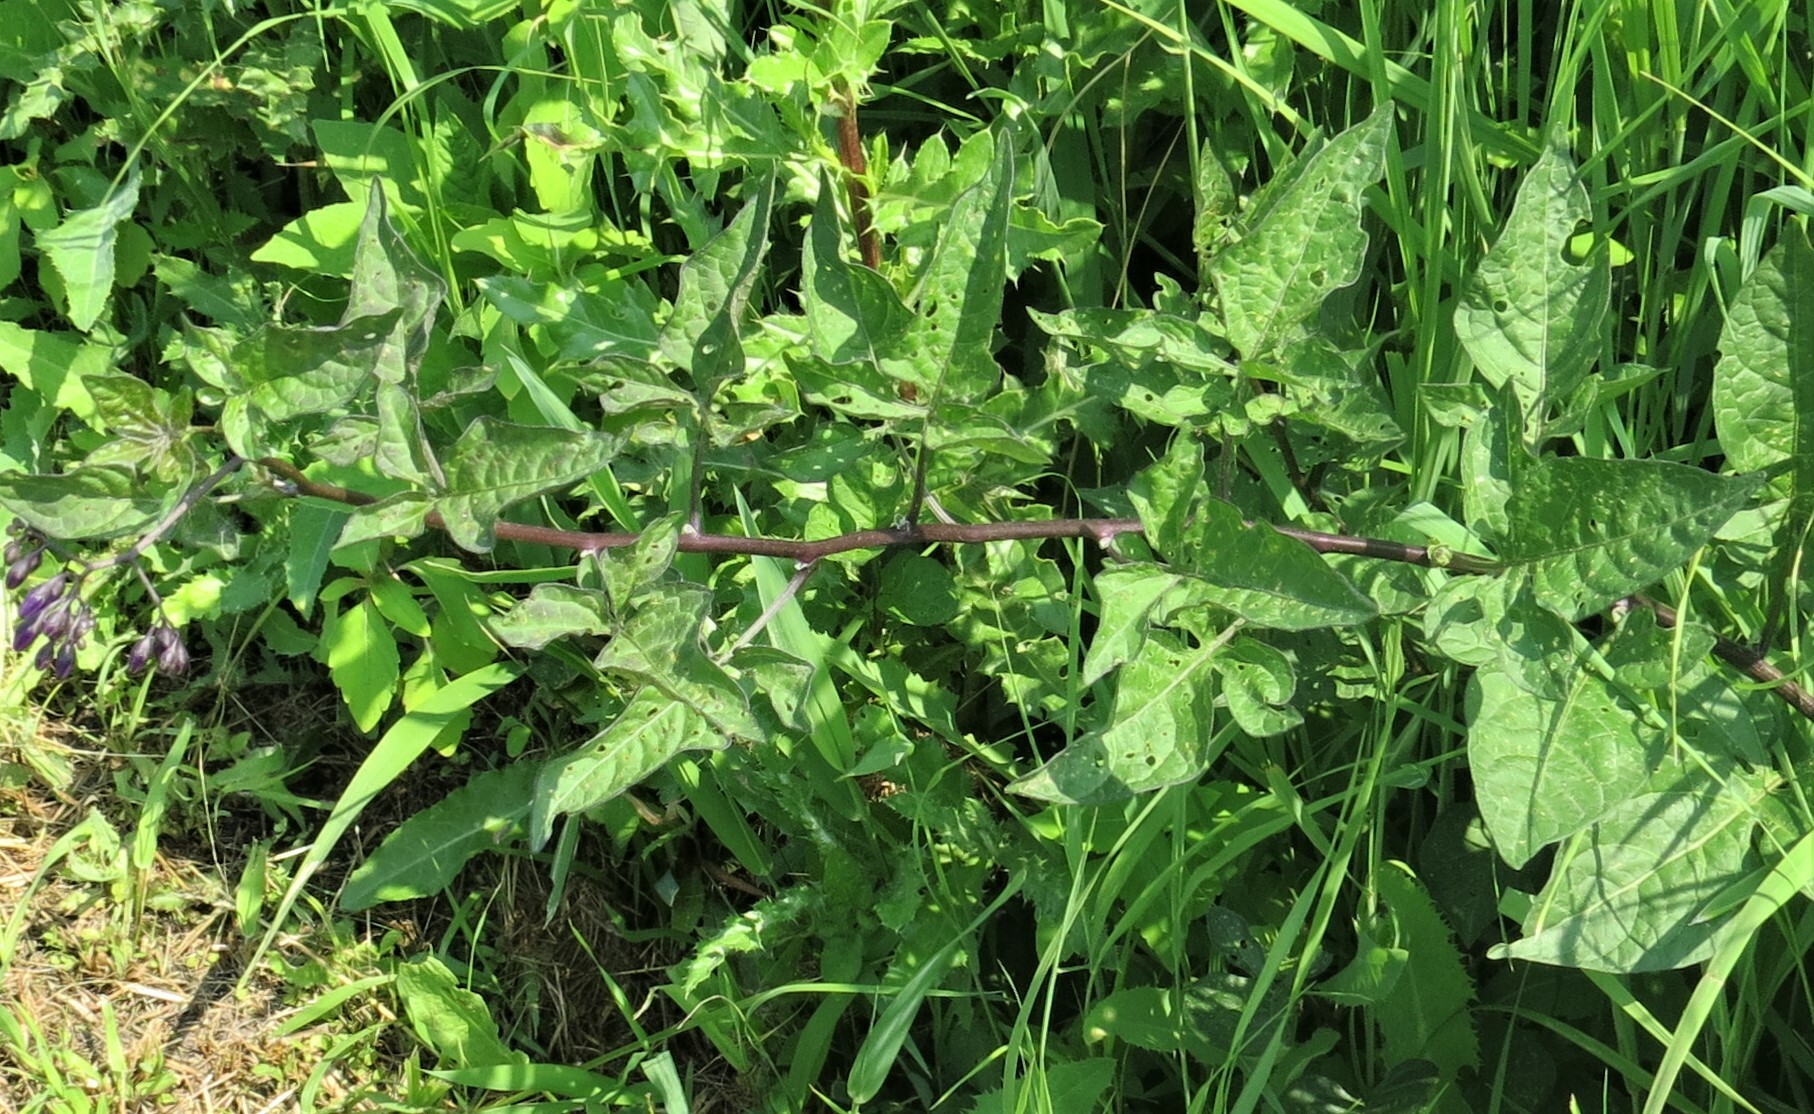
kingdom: Plantae
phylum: Tracheophyta
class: Magnoliopsida
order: Solanales
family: Solanaceae
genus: Solanum
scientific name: Solanum dulcamara
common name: Climbing nightshade
